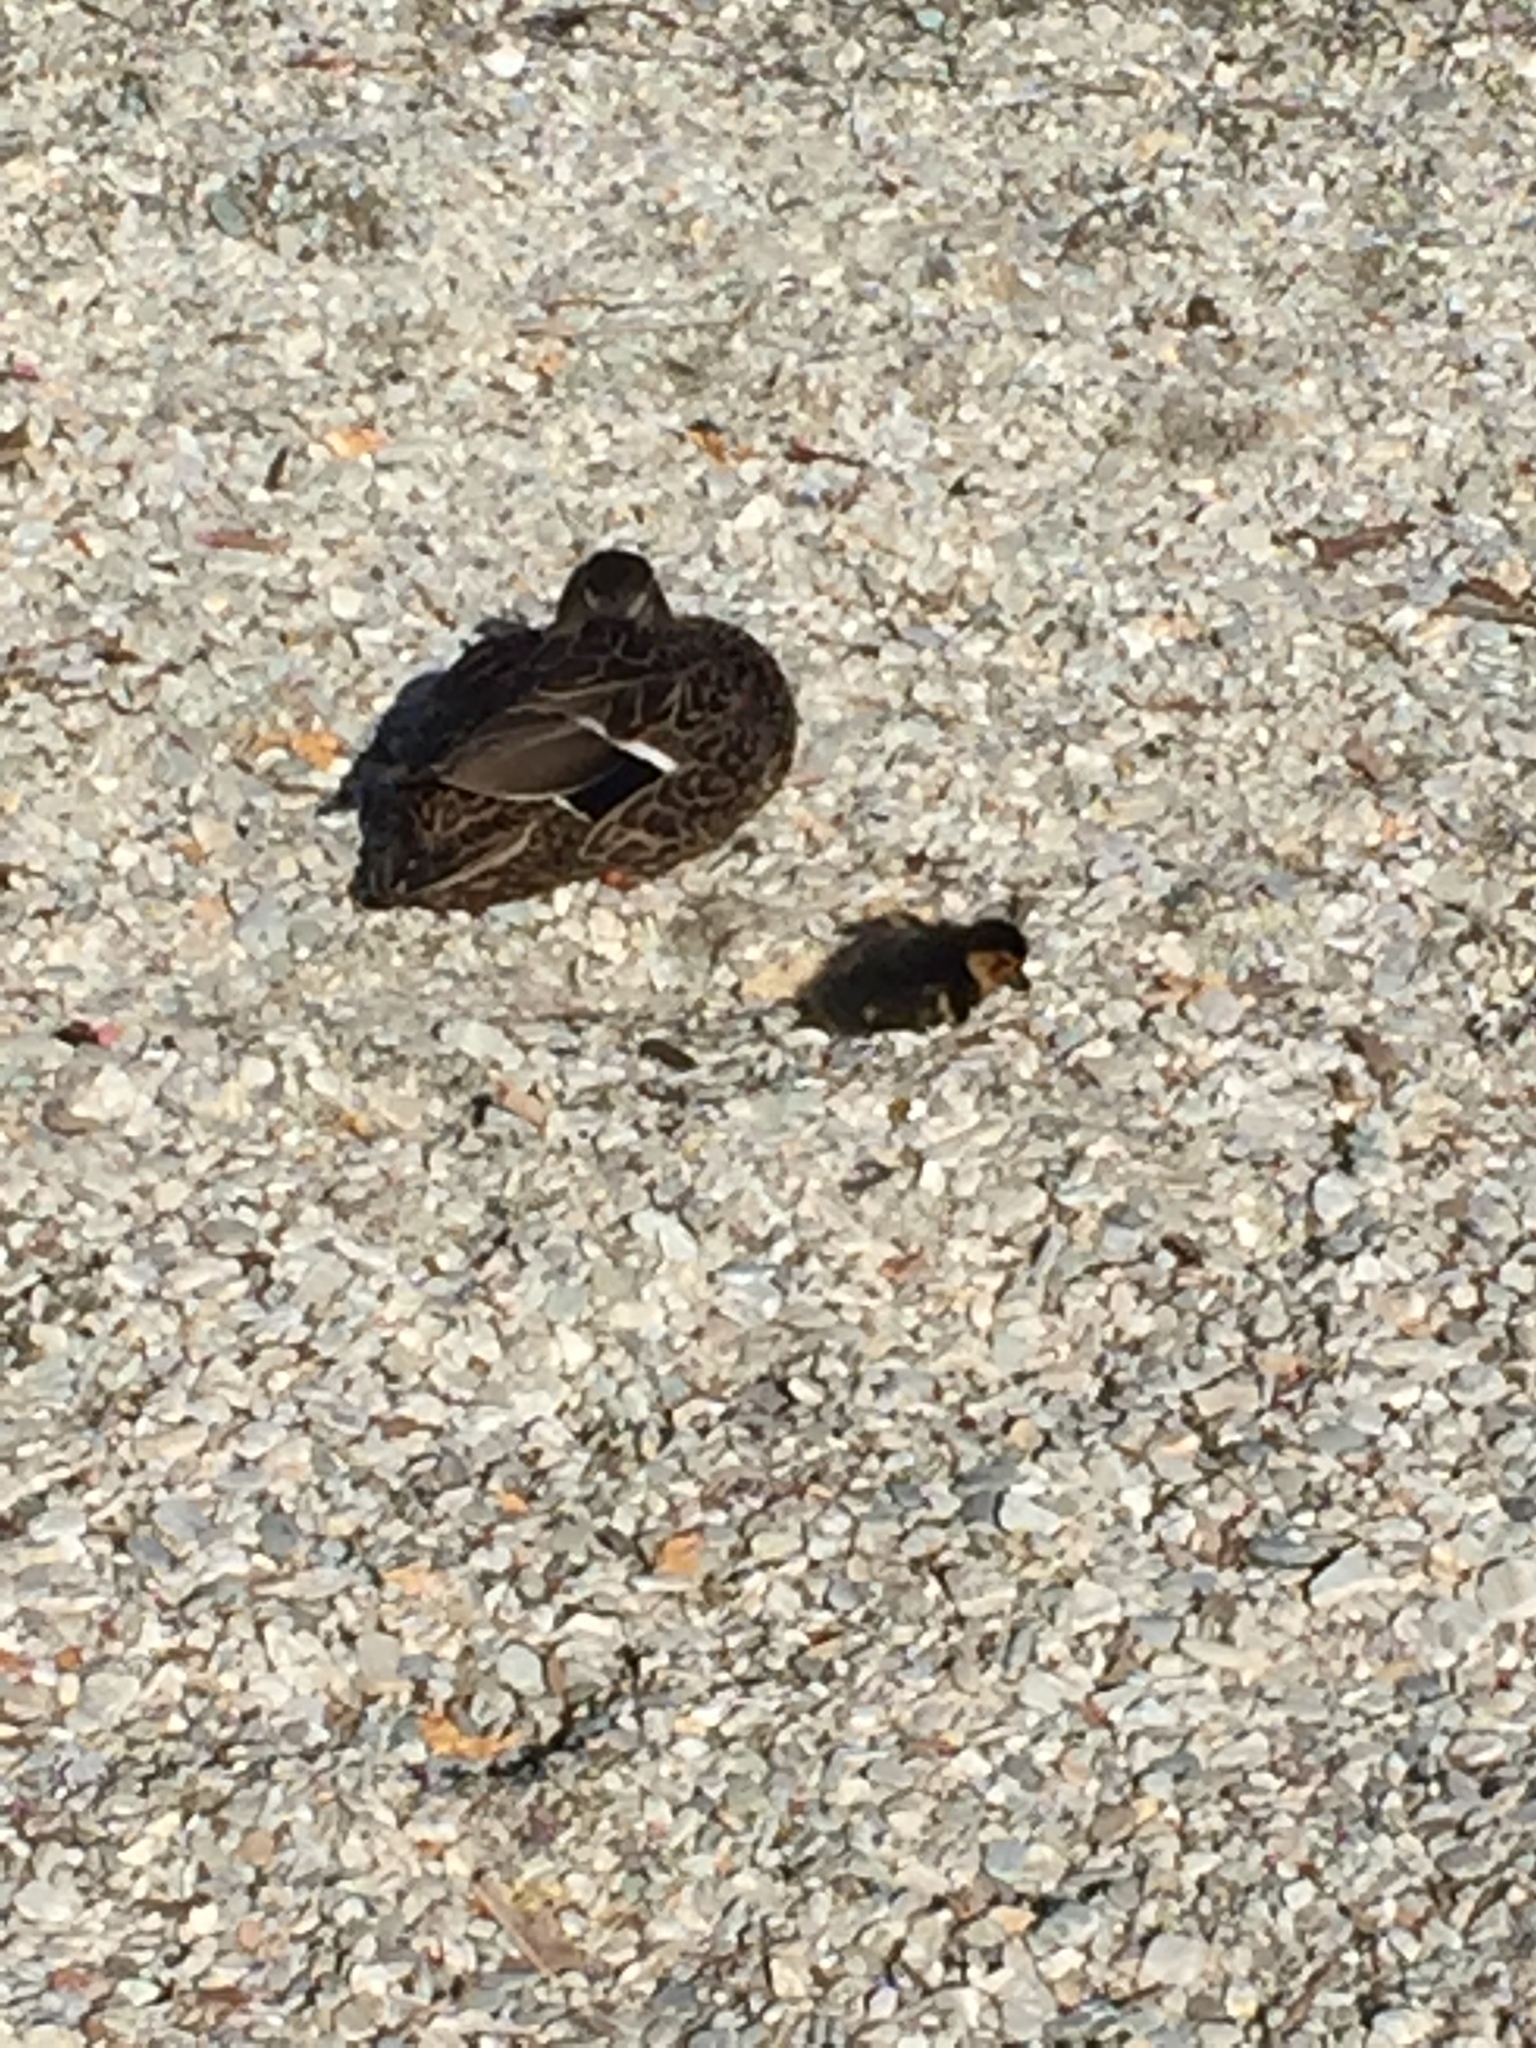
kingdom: Animalia
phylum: Chordata
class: Aves
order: Anseriformes
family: Anatidae
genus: Anas
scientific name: Anas platyrhynchos
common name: Mallard
